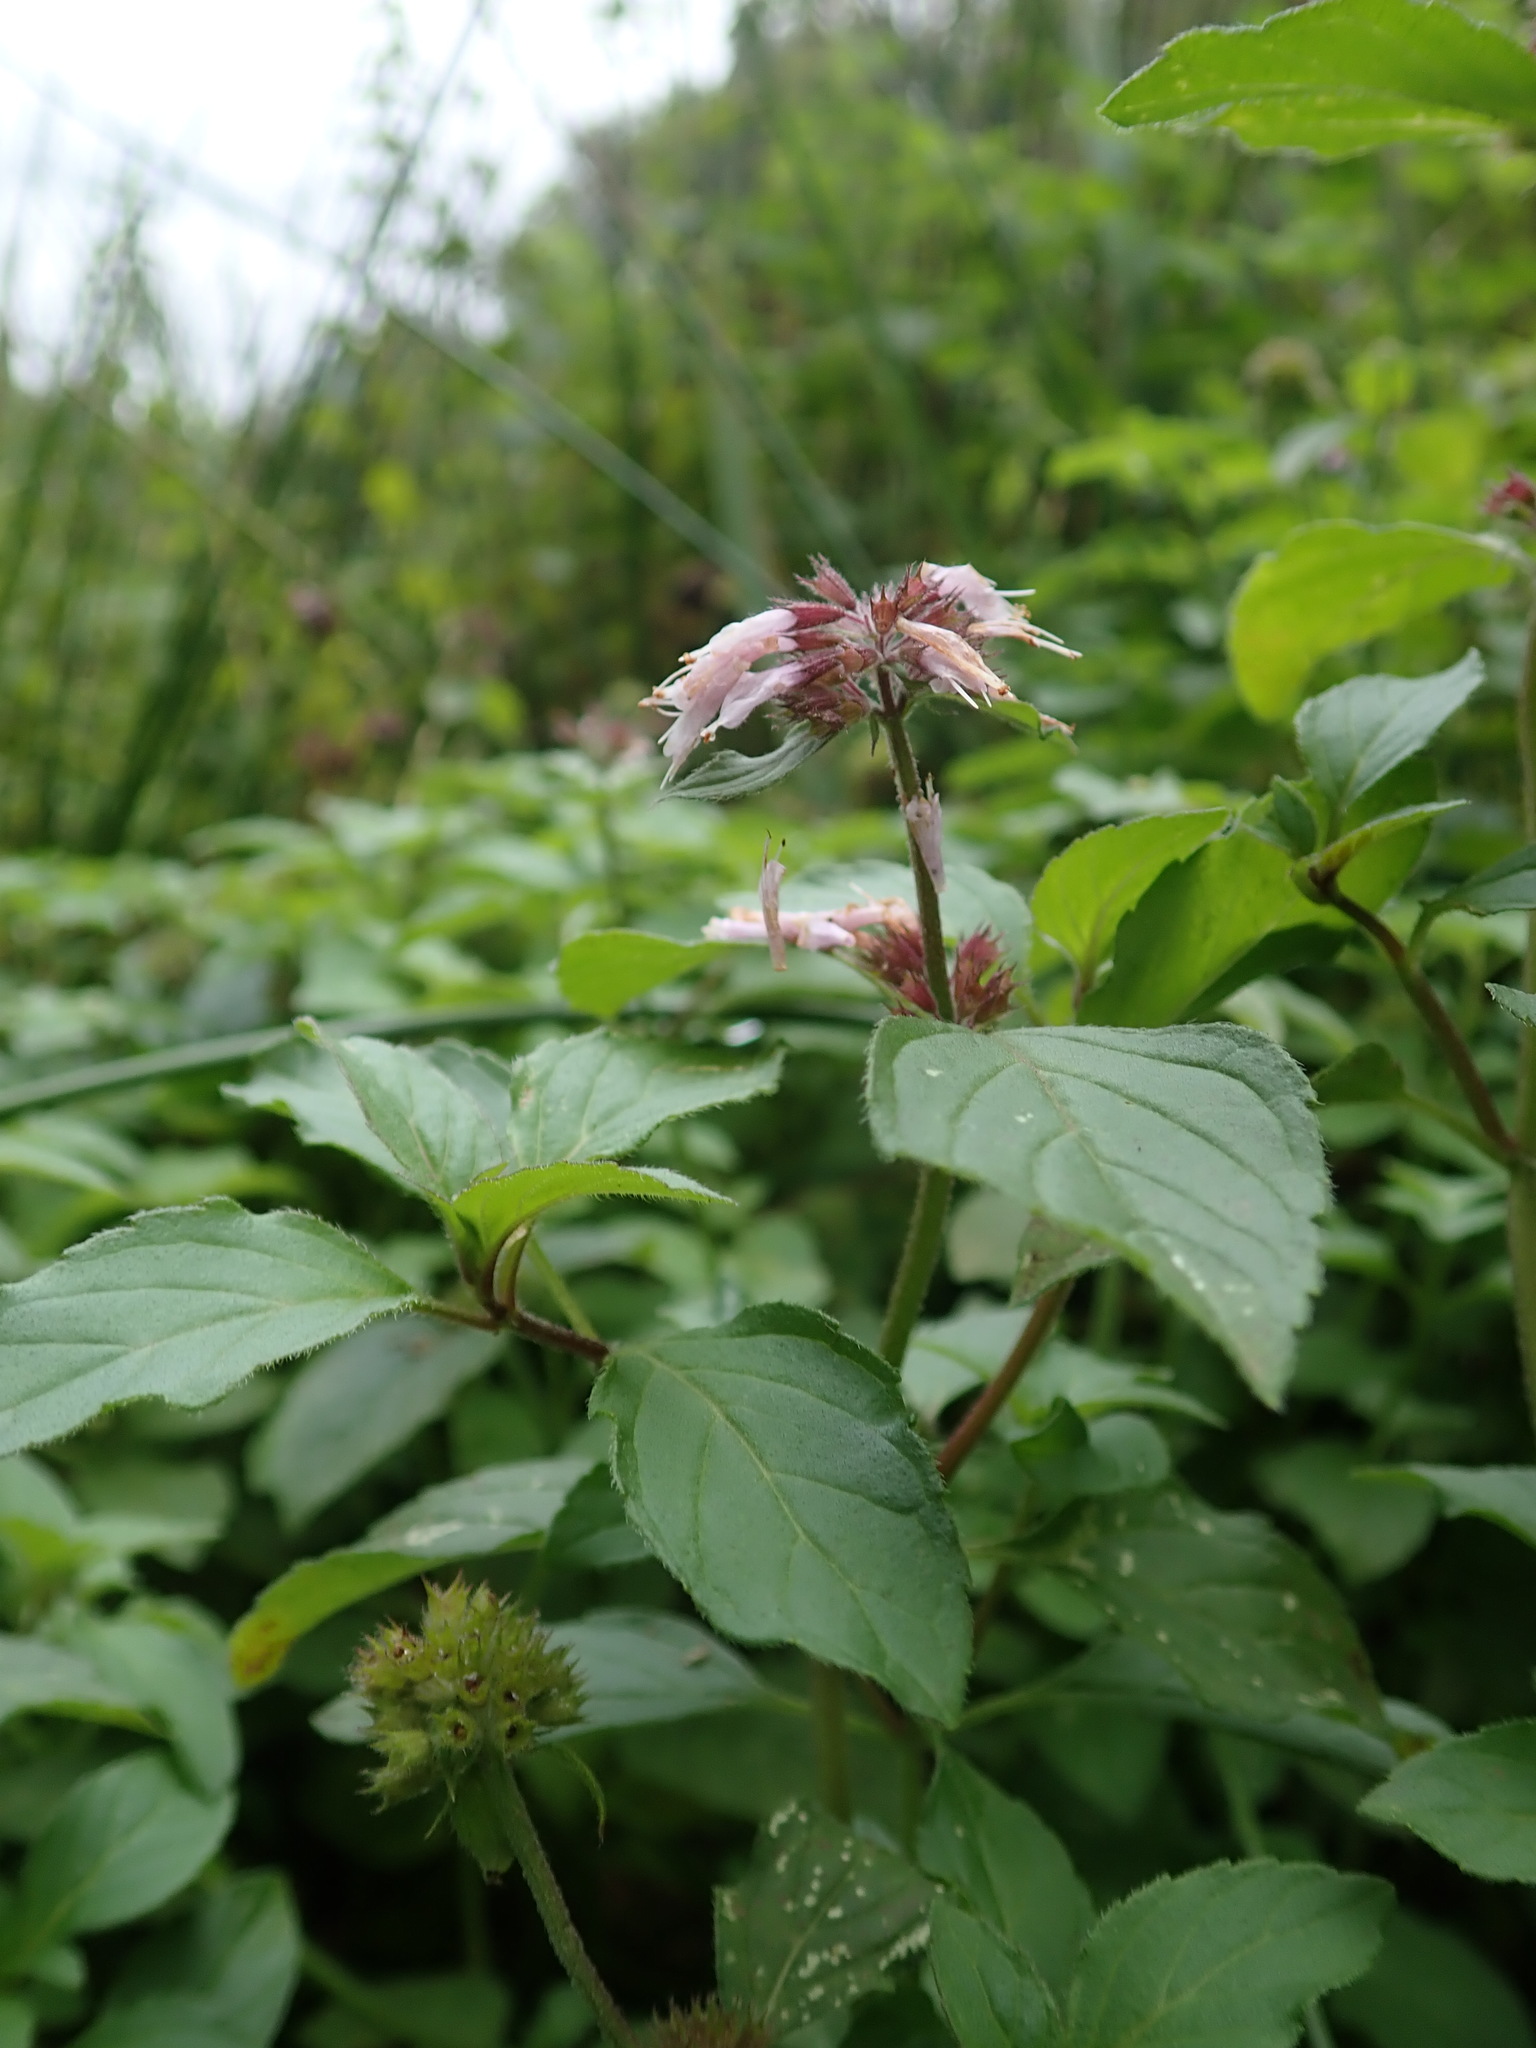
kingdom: Plantae
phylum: Tracheophyta
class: Magnoliopsida
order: Lamiales
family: Lamiaceae
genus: Mentha
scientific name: Mentha aquatica
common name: Water mint
